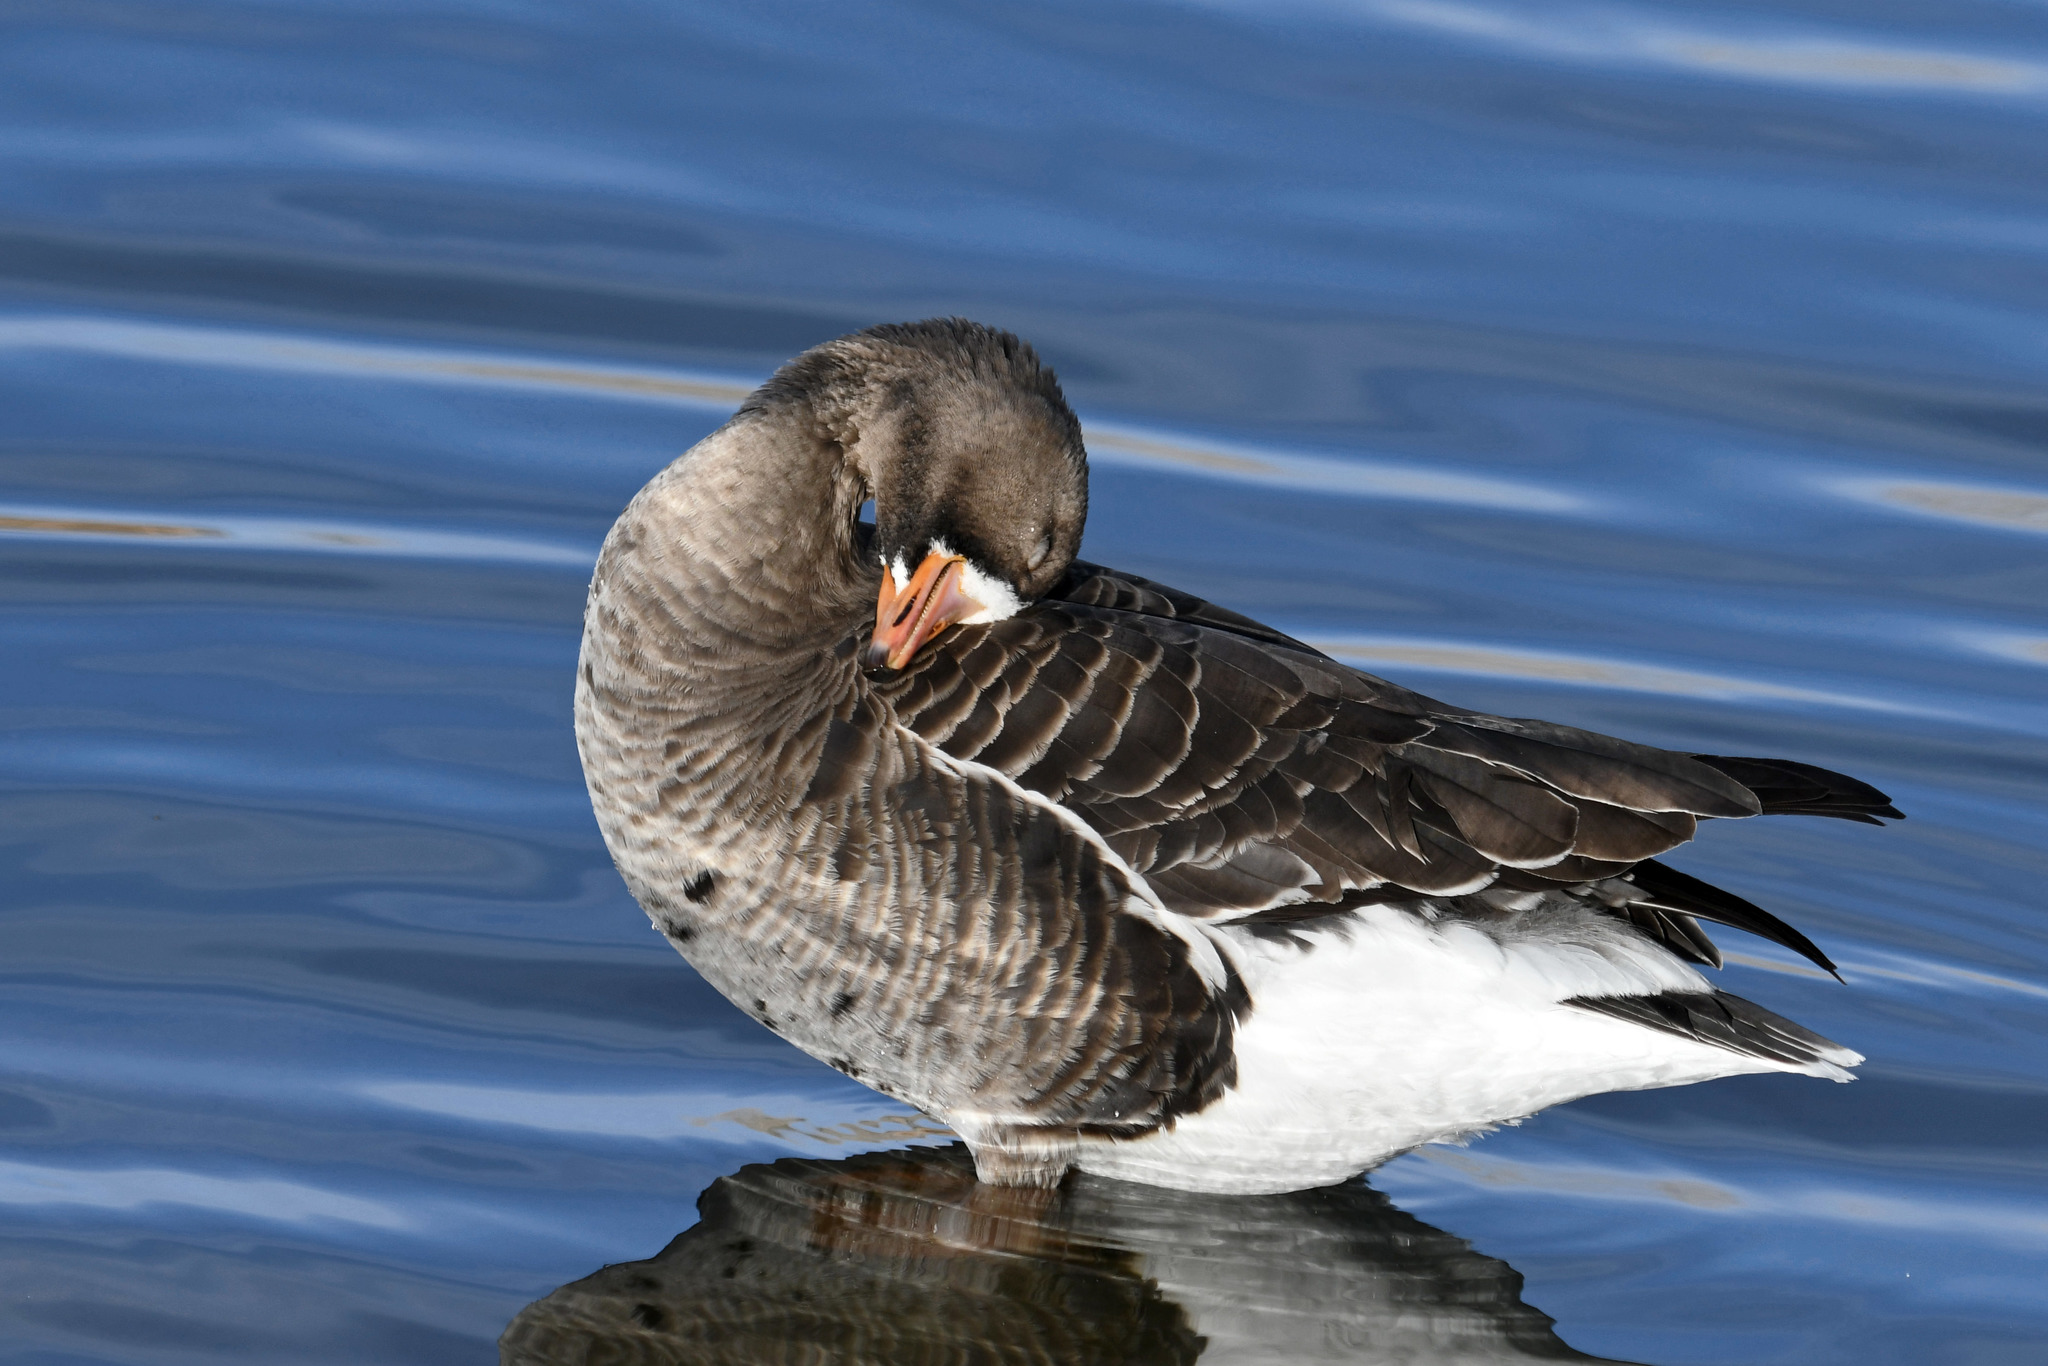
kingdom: Animalia
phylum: Chordata
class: Aves
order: Anseriformes
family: Anatidae
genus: Anser
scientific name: Anser albifrons
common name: Greater white-fronted goose
